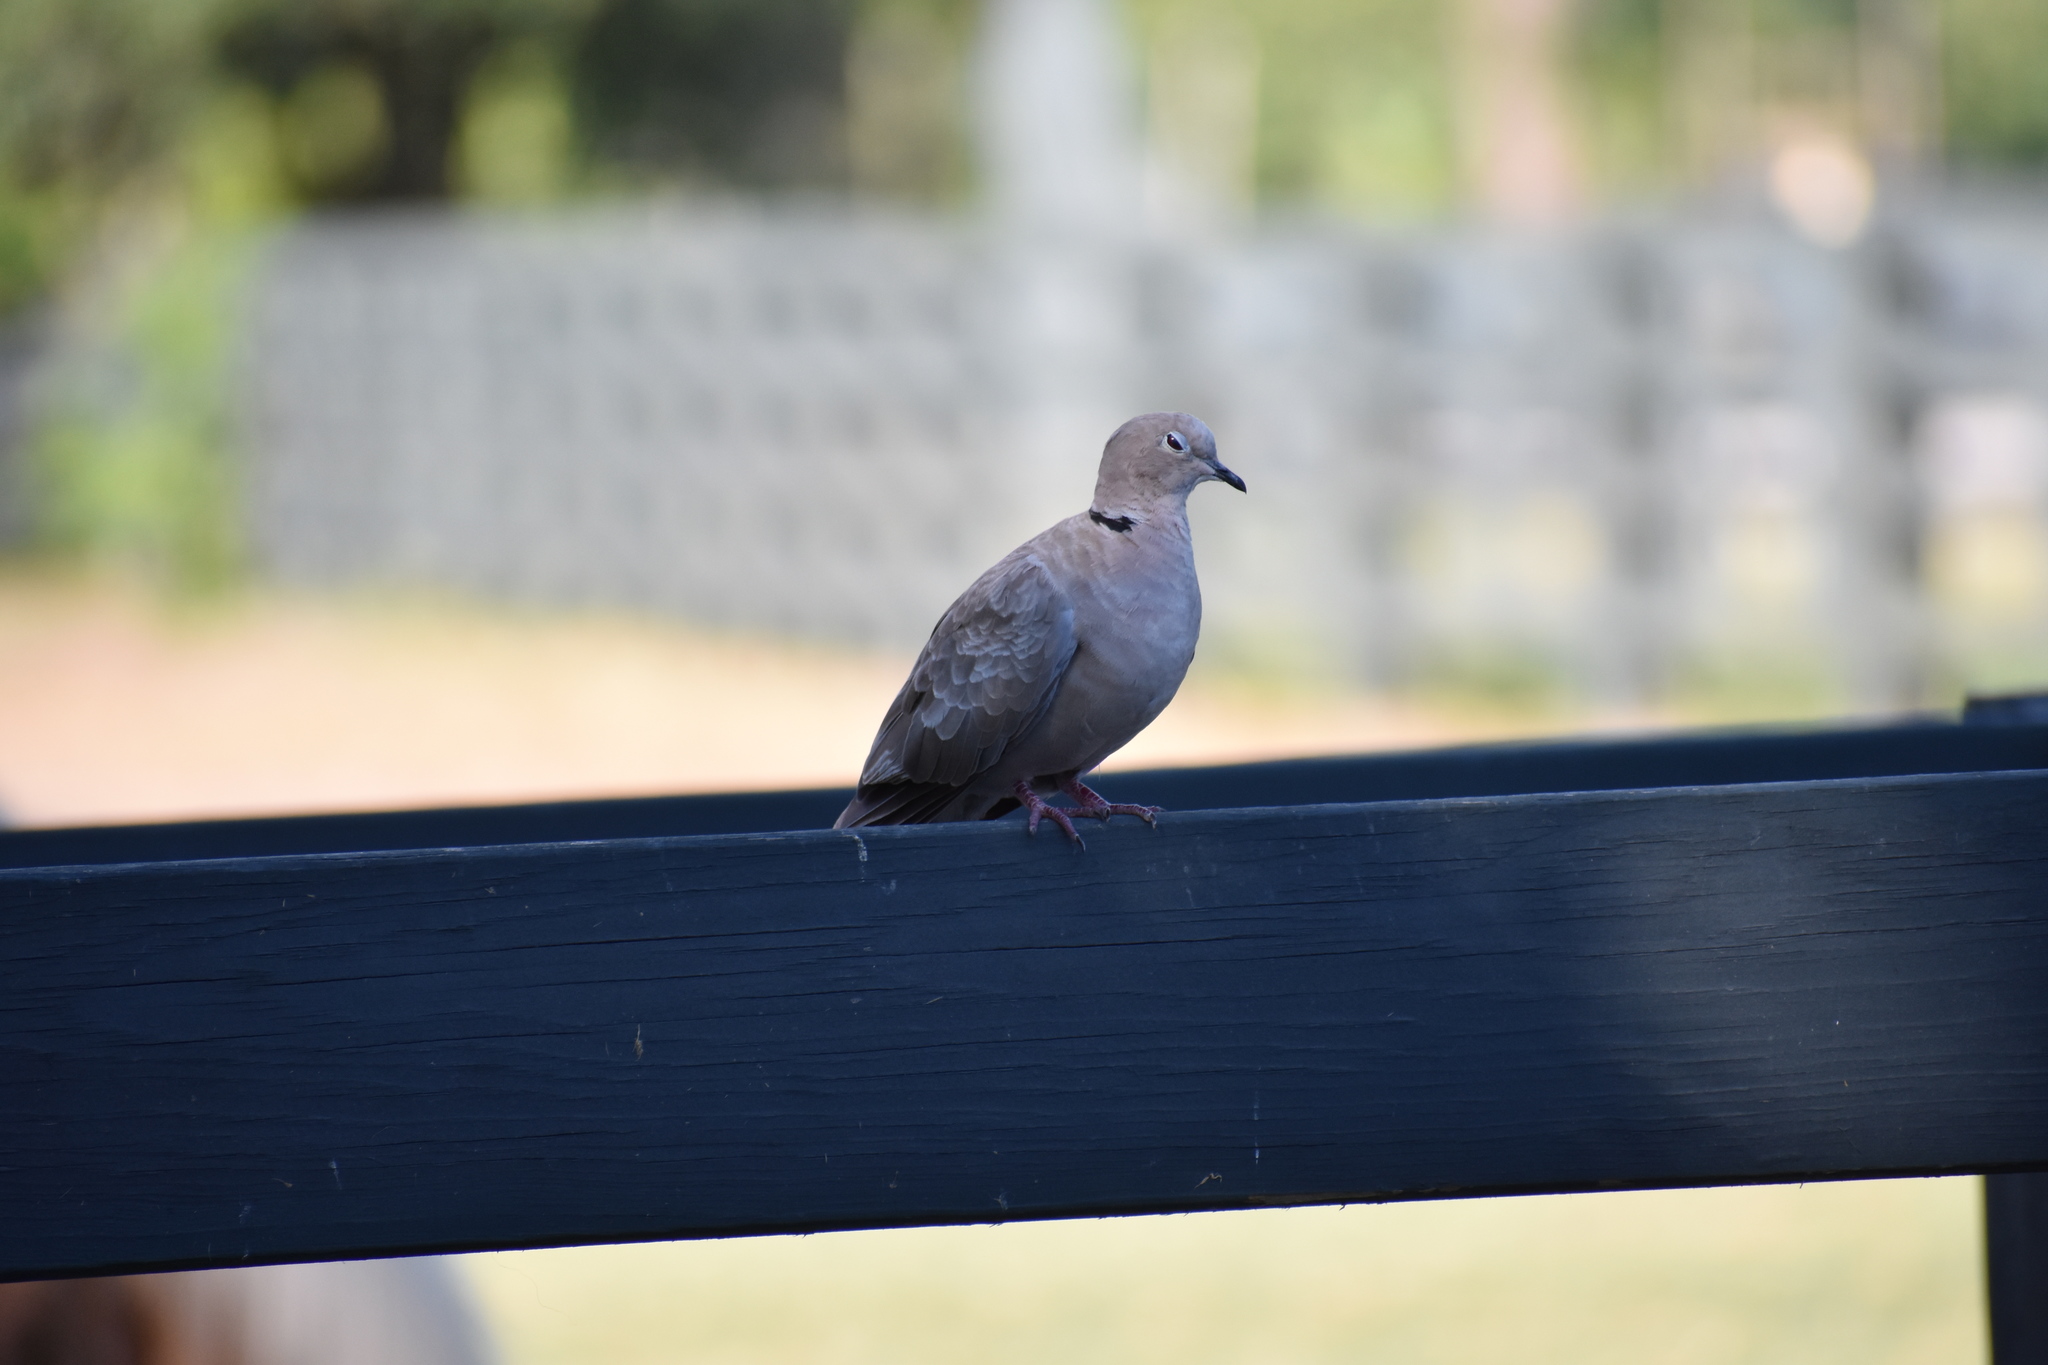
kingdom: Animalia
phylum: Chordata
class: Aves
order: Columbiformes
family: Columbidae
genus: Streptopelia
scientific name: Streptopelia decaocto
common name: Eurasian collared dove
